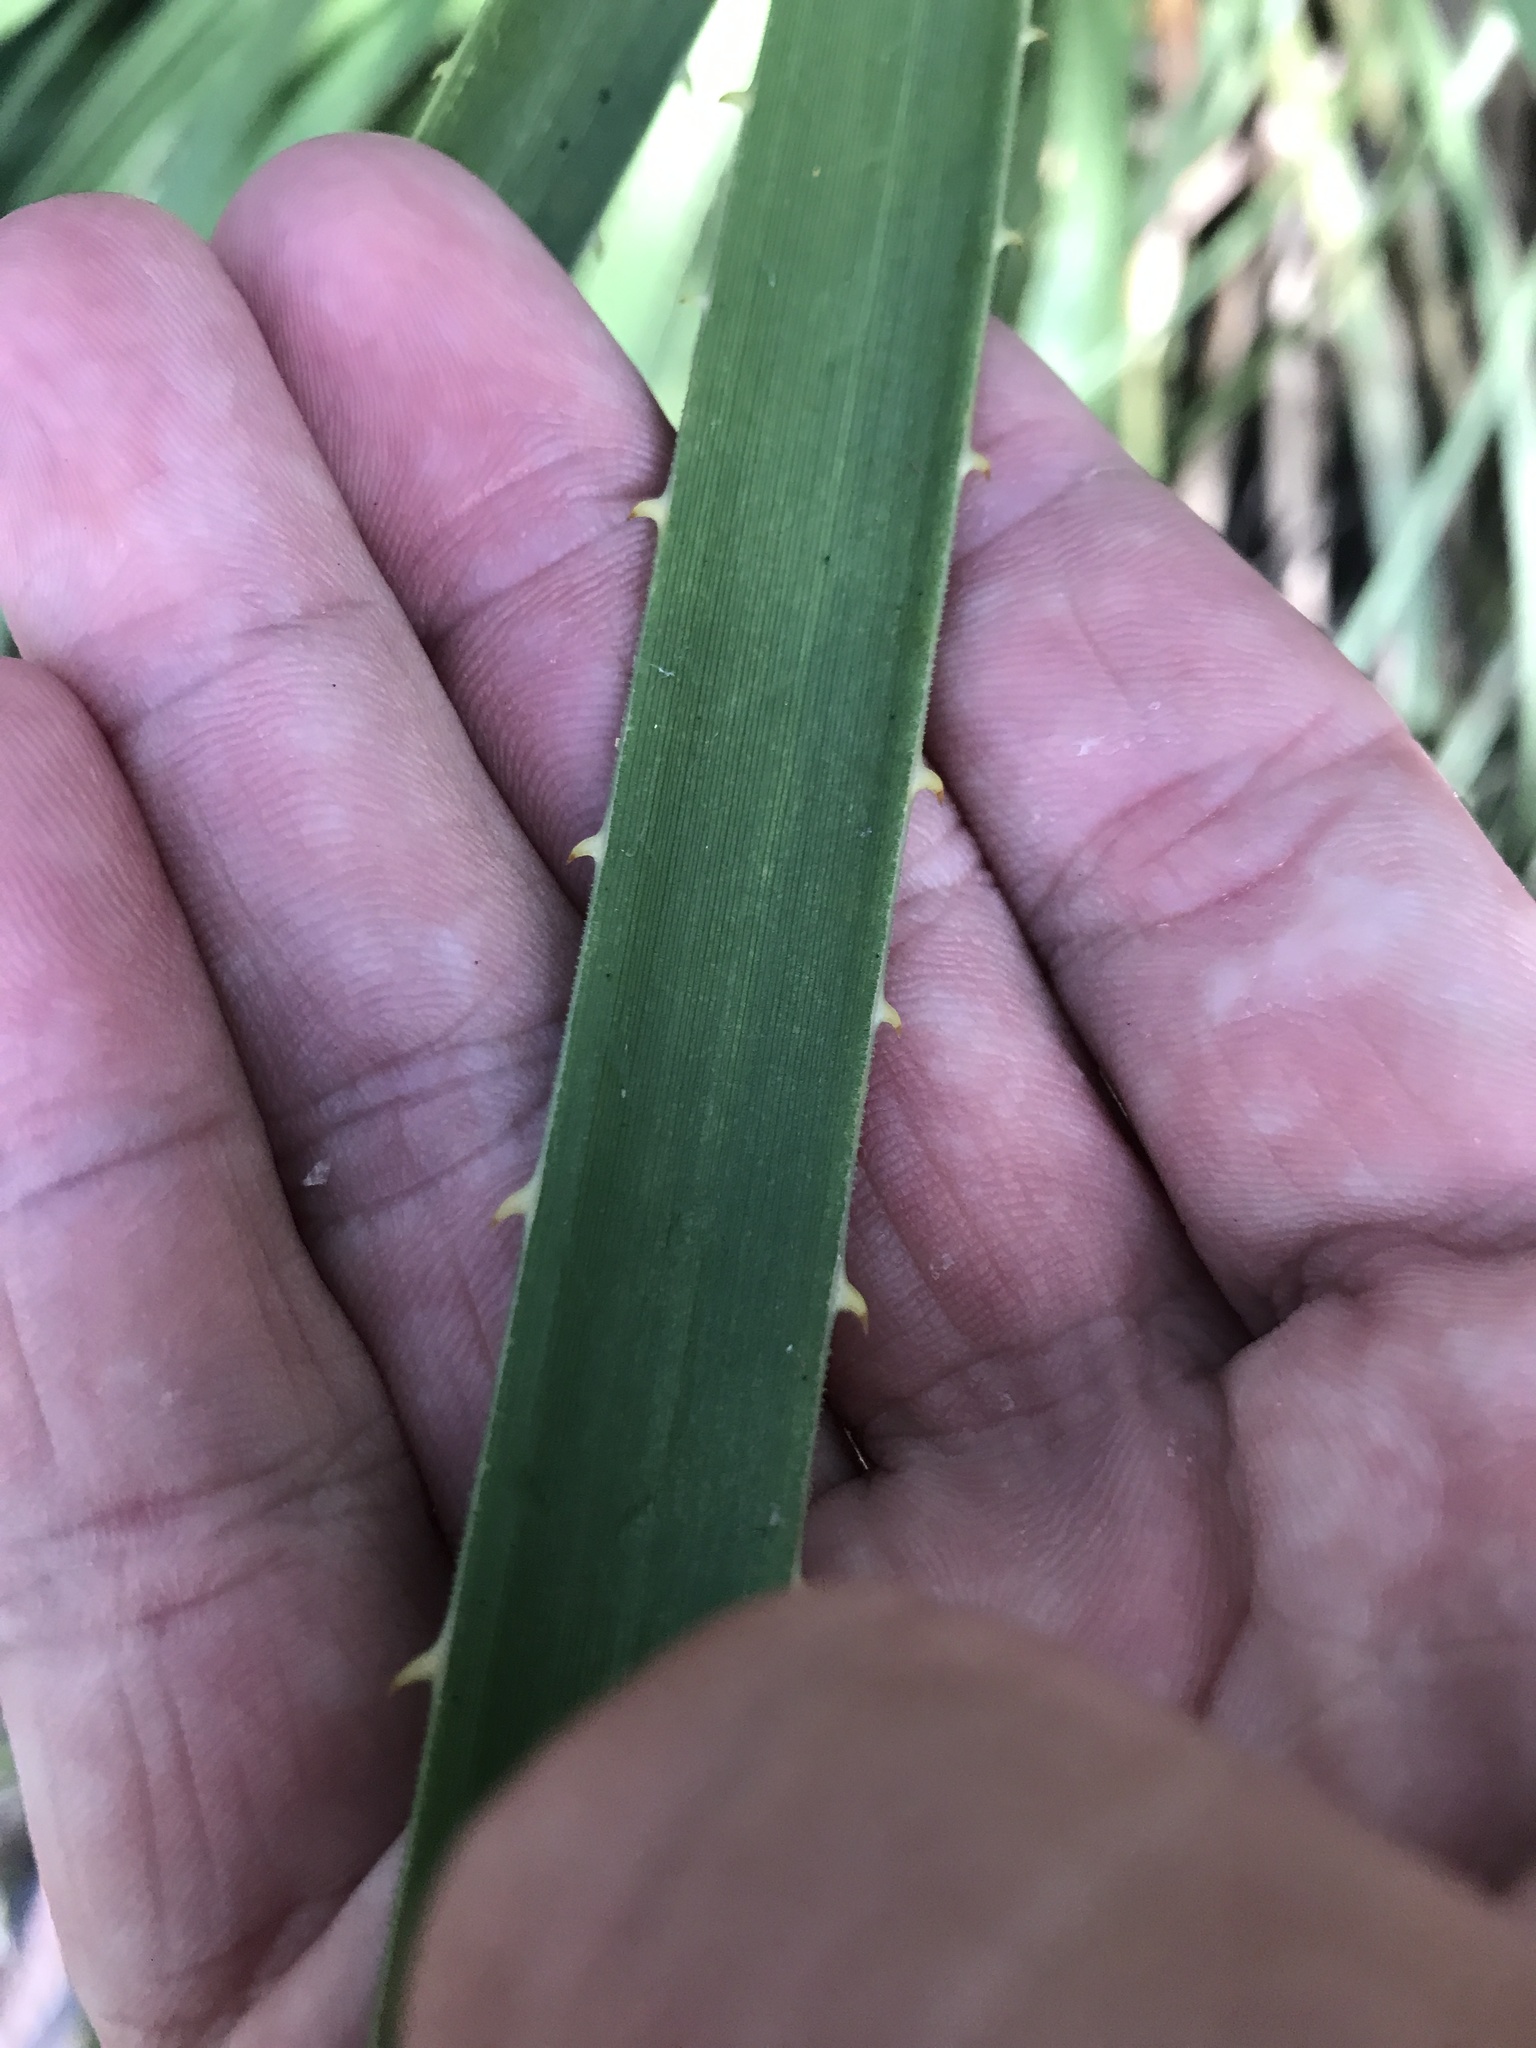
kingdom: Plantae
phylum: Tracheophyta
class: Liliopsida
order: Asparagales
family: Asparagaceae
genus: Dasylirion
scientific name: Dasylirion texanum
